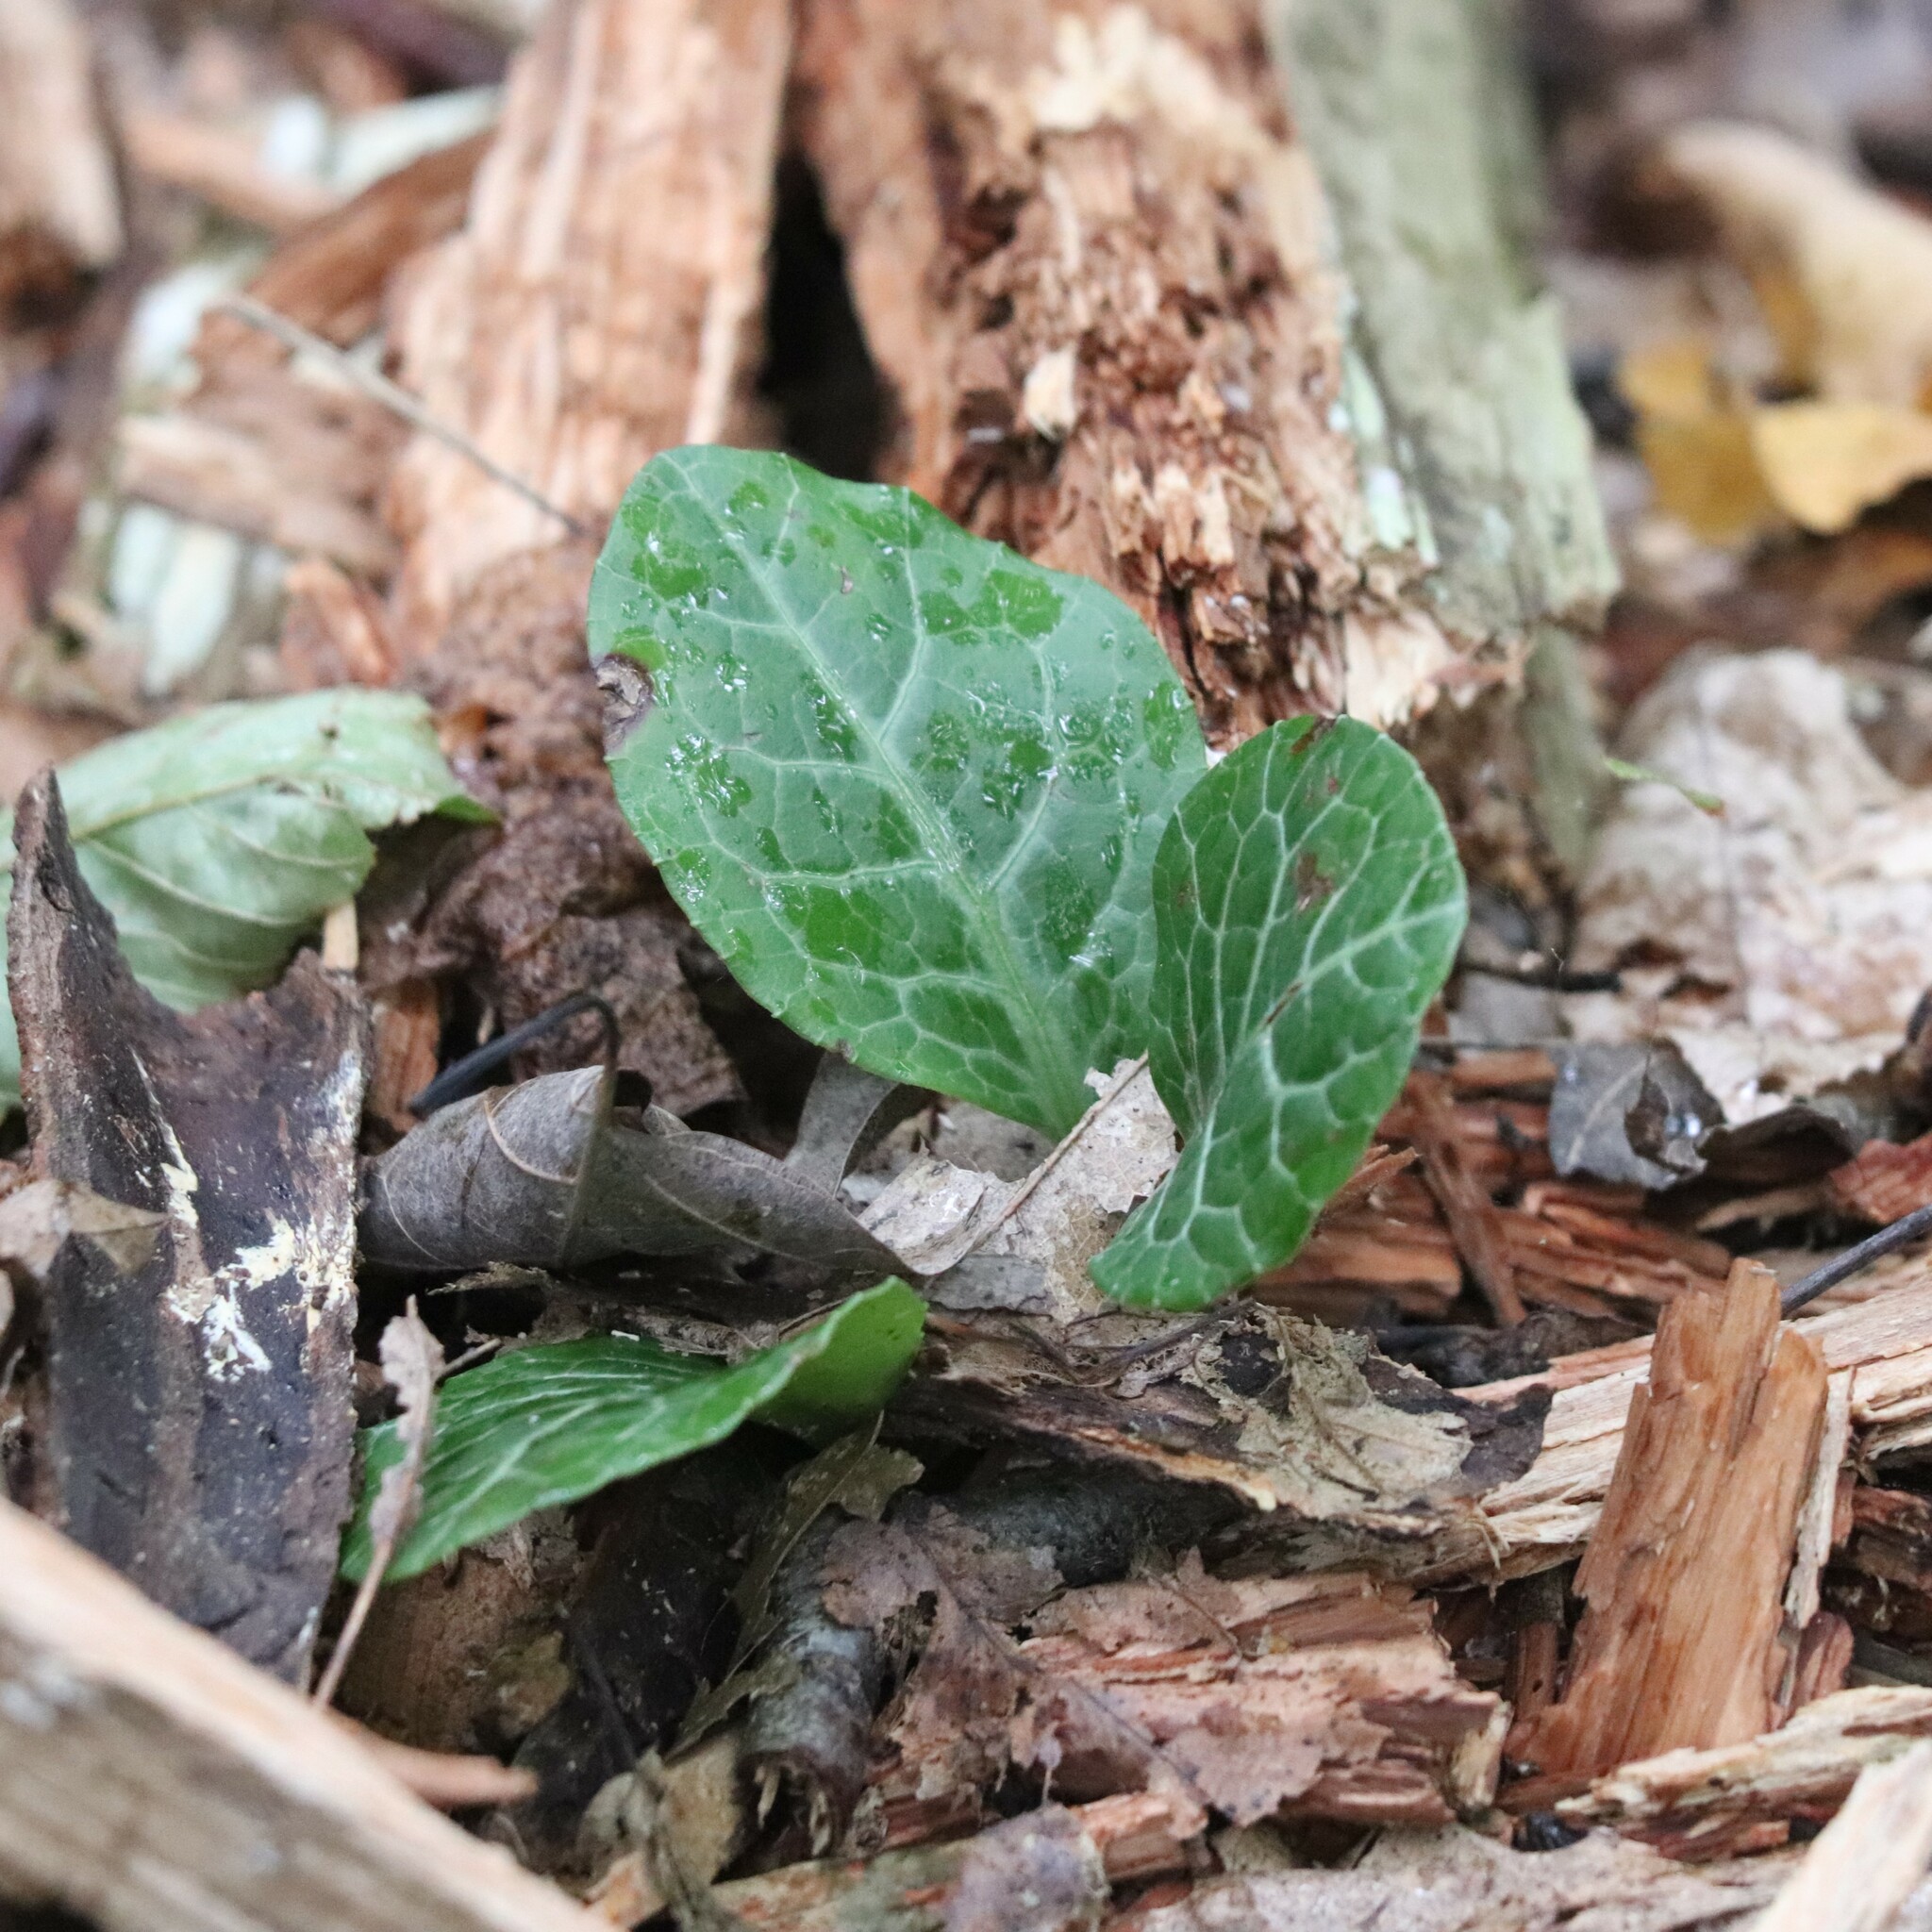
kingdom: Plantae
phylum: Tracheophyta
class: Magnoliopsida
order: Ericales
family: Ericaceae
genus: Pyrola
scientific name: Pyrola americana
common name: American wintergreen
